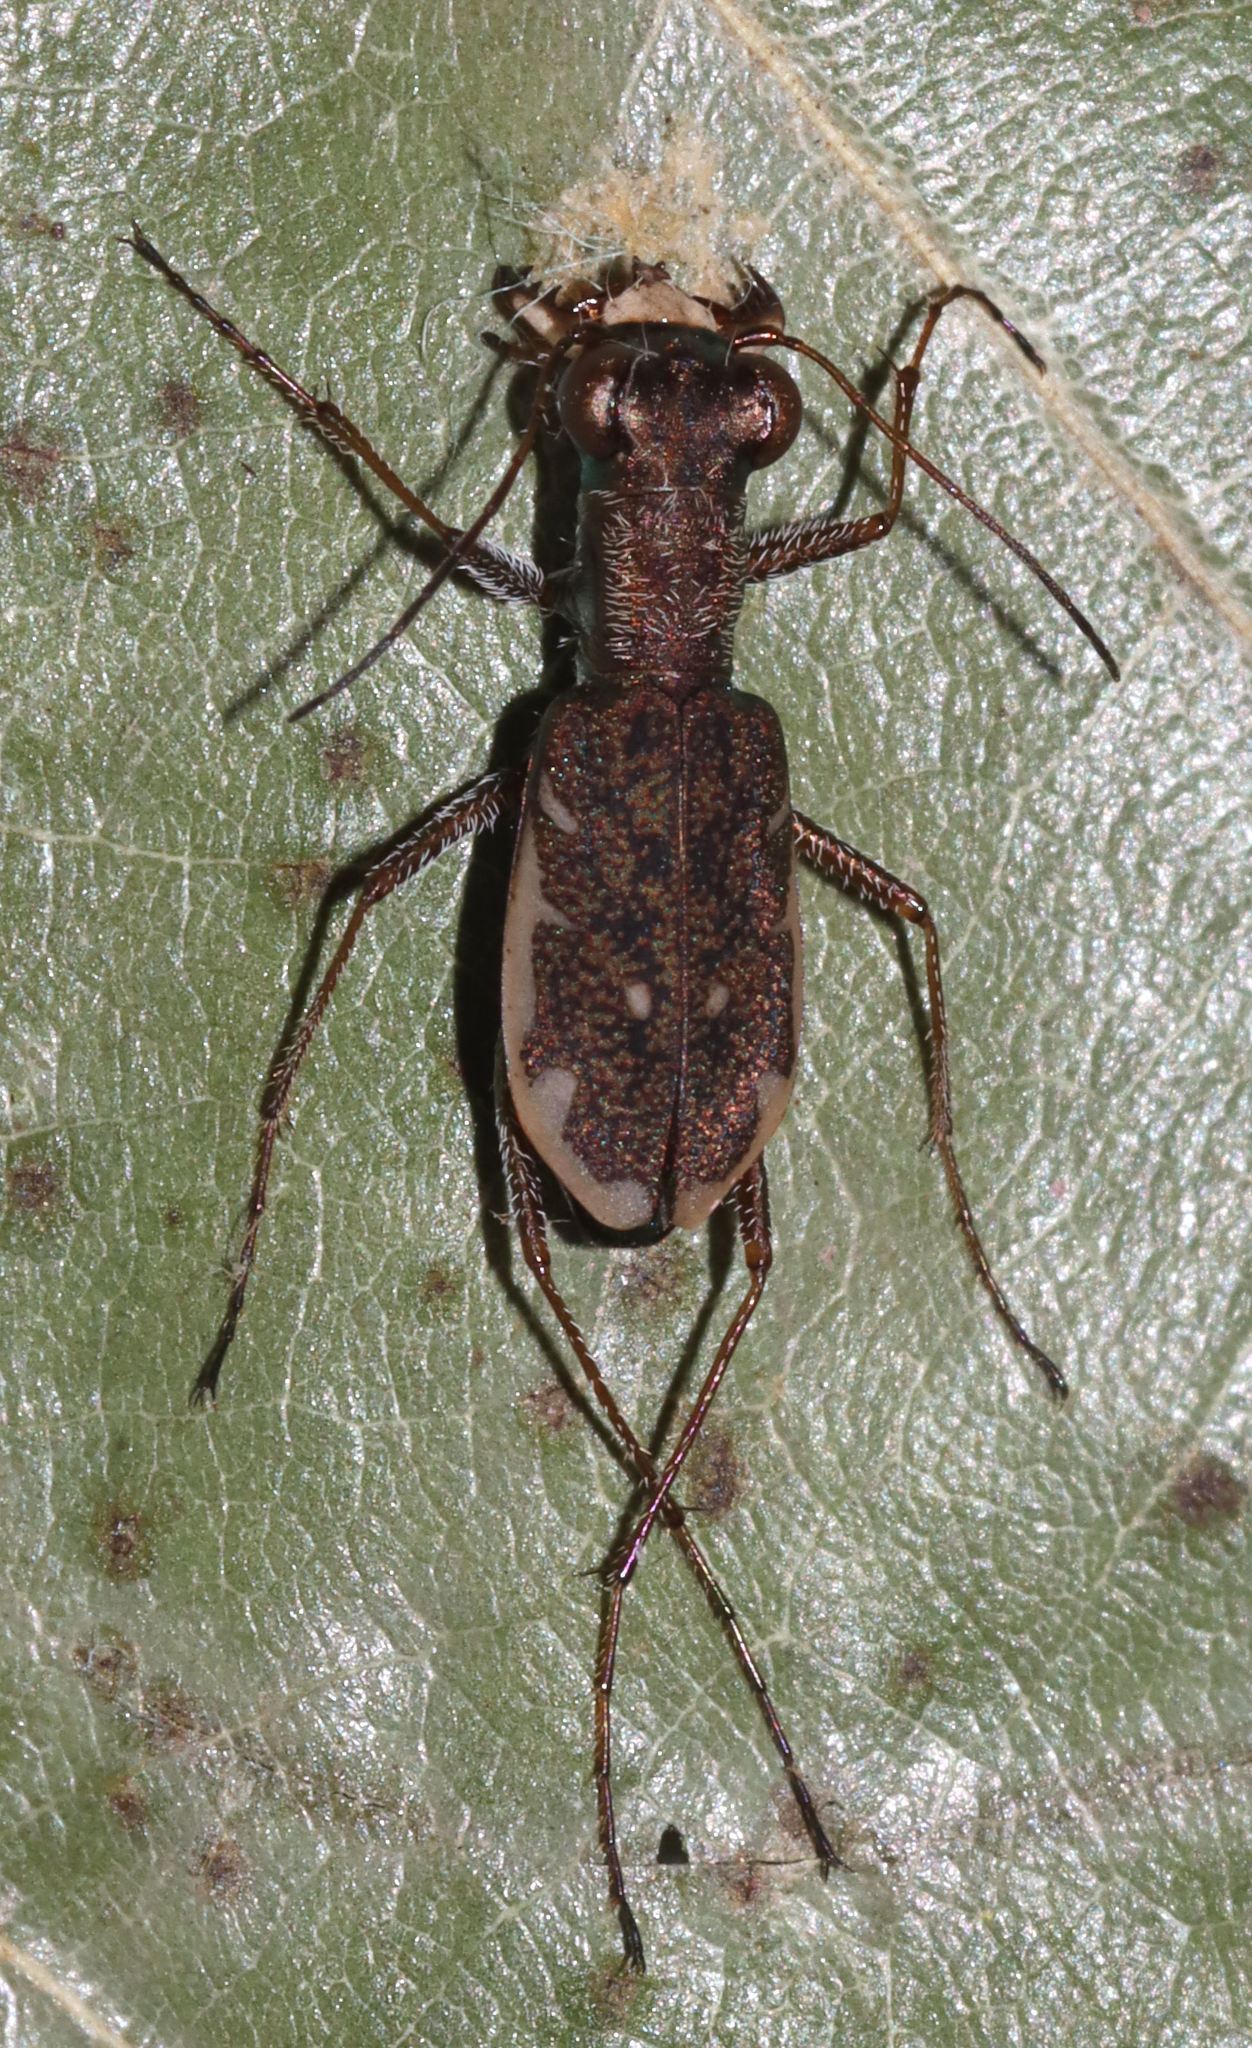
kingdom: Animalia
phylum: Arthropoda
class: Insecta
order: Coleoptera
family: Carabidae
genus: Cylindera
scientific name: Cylindera cursitans
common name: Ant-like tiger beetle
